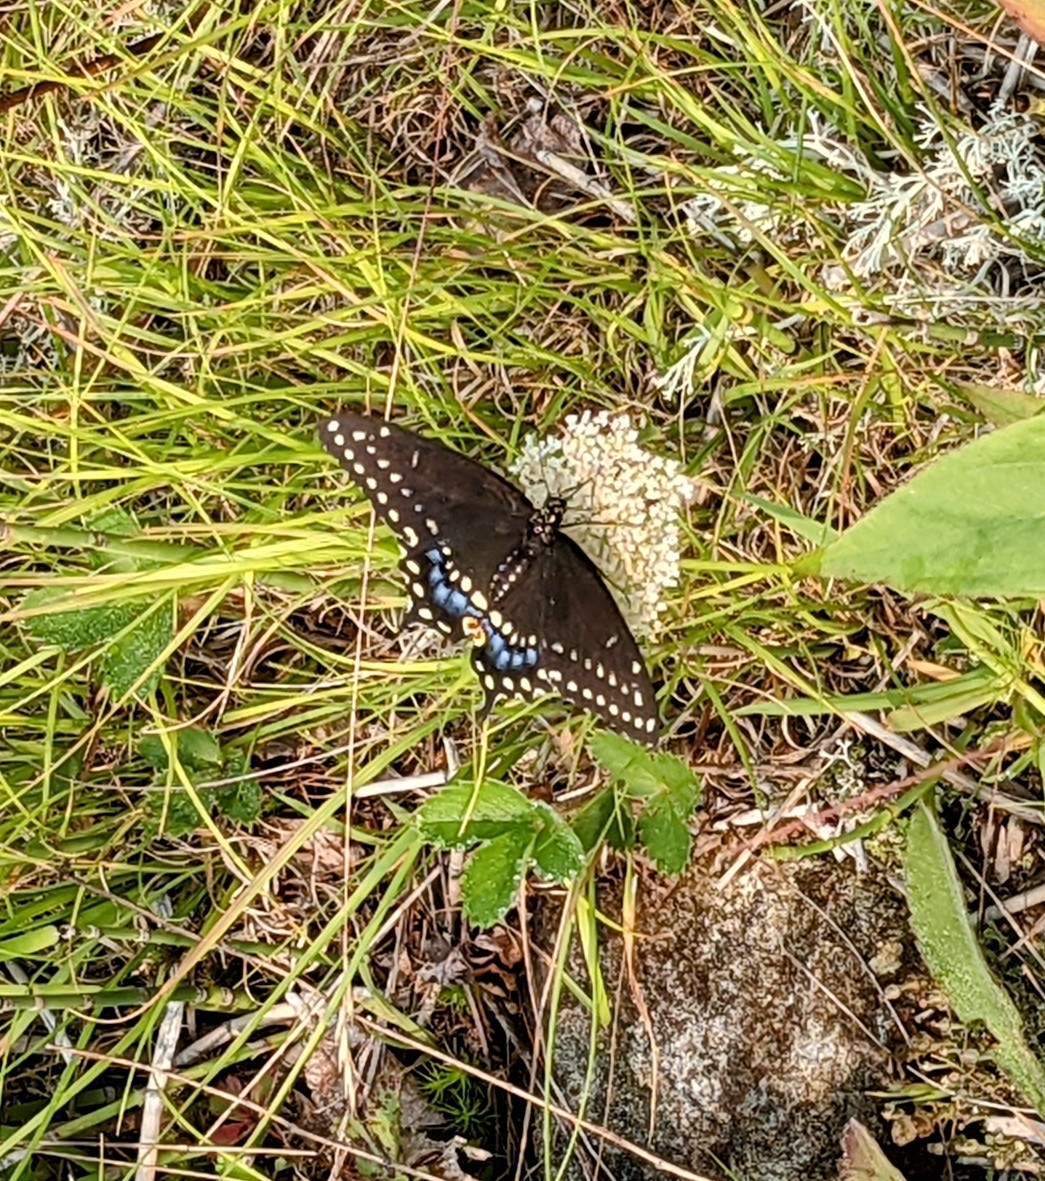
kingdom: Animalia
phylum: Arthropoda
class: Insecta
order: Lepidoptera
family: Papilionidae
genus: Papilio
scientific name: Papilio polyxenes
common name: Black swallowtail
